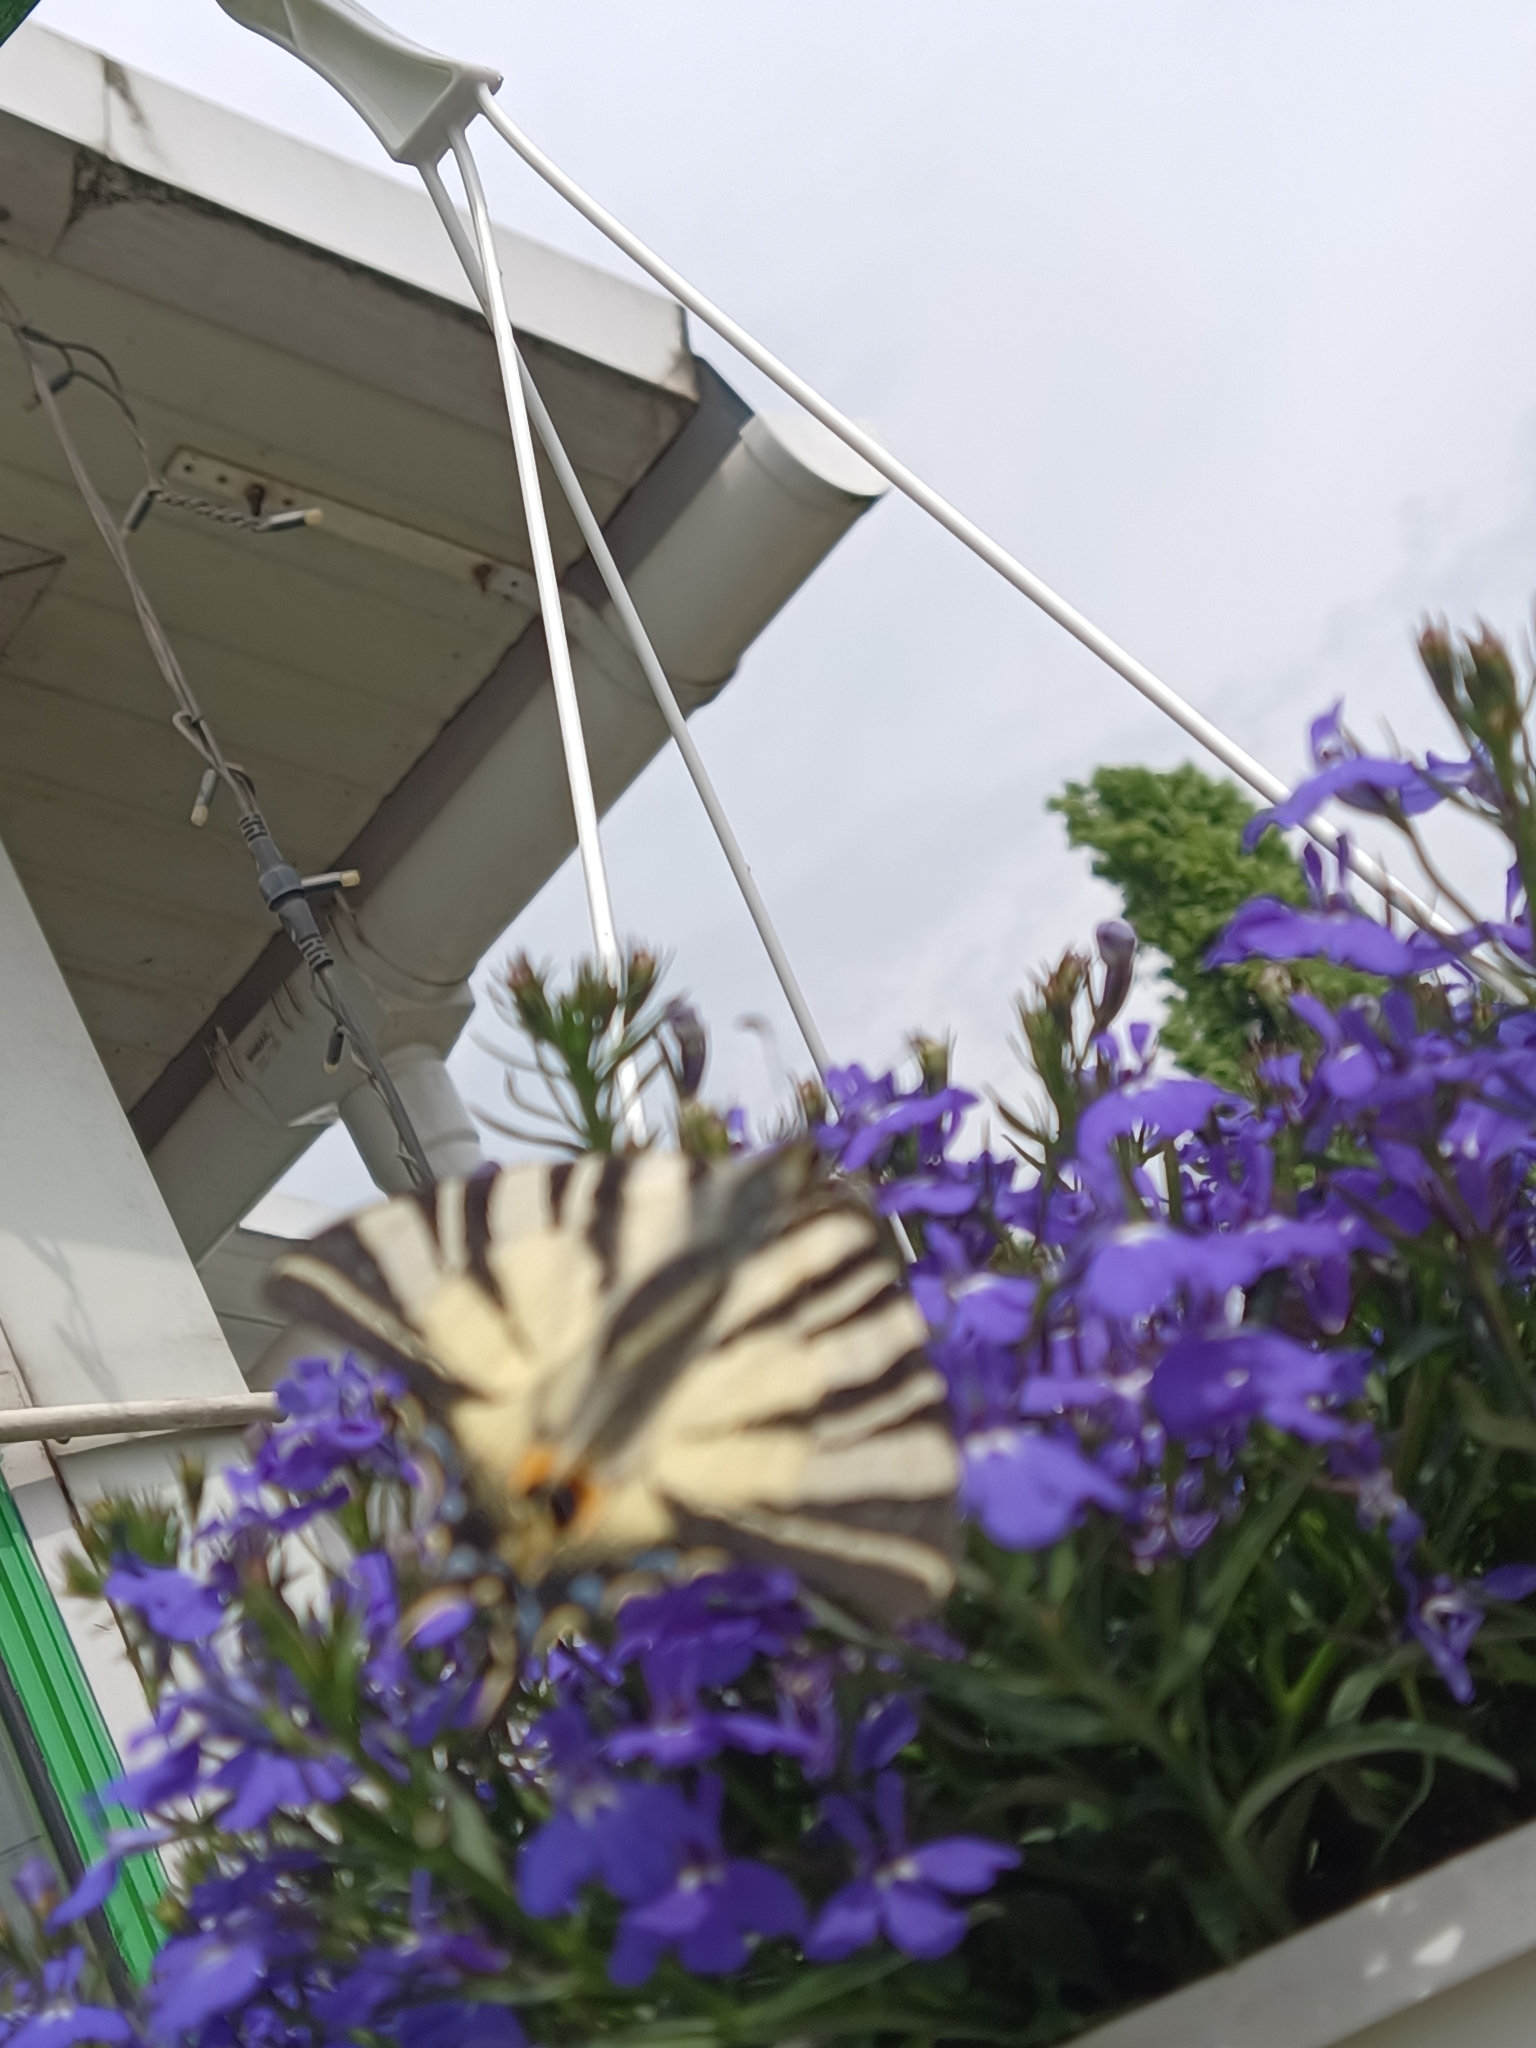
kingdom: Animalia
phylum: Arthropoda
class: Insecta
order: Lepidoptera
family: Papilionidae
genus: Iphiclides
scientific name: Iphiclides podalirius
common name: Scarce swallowtail
